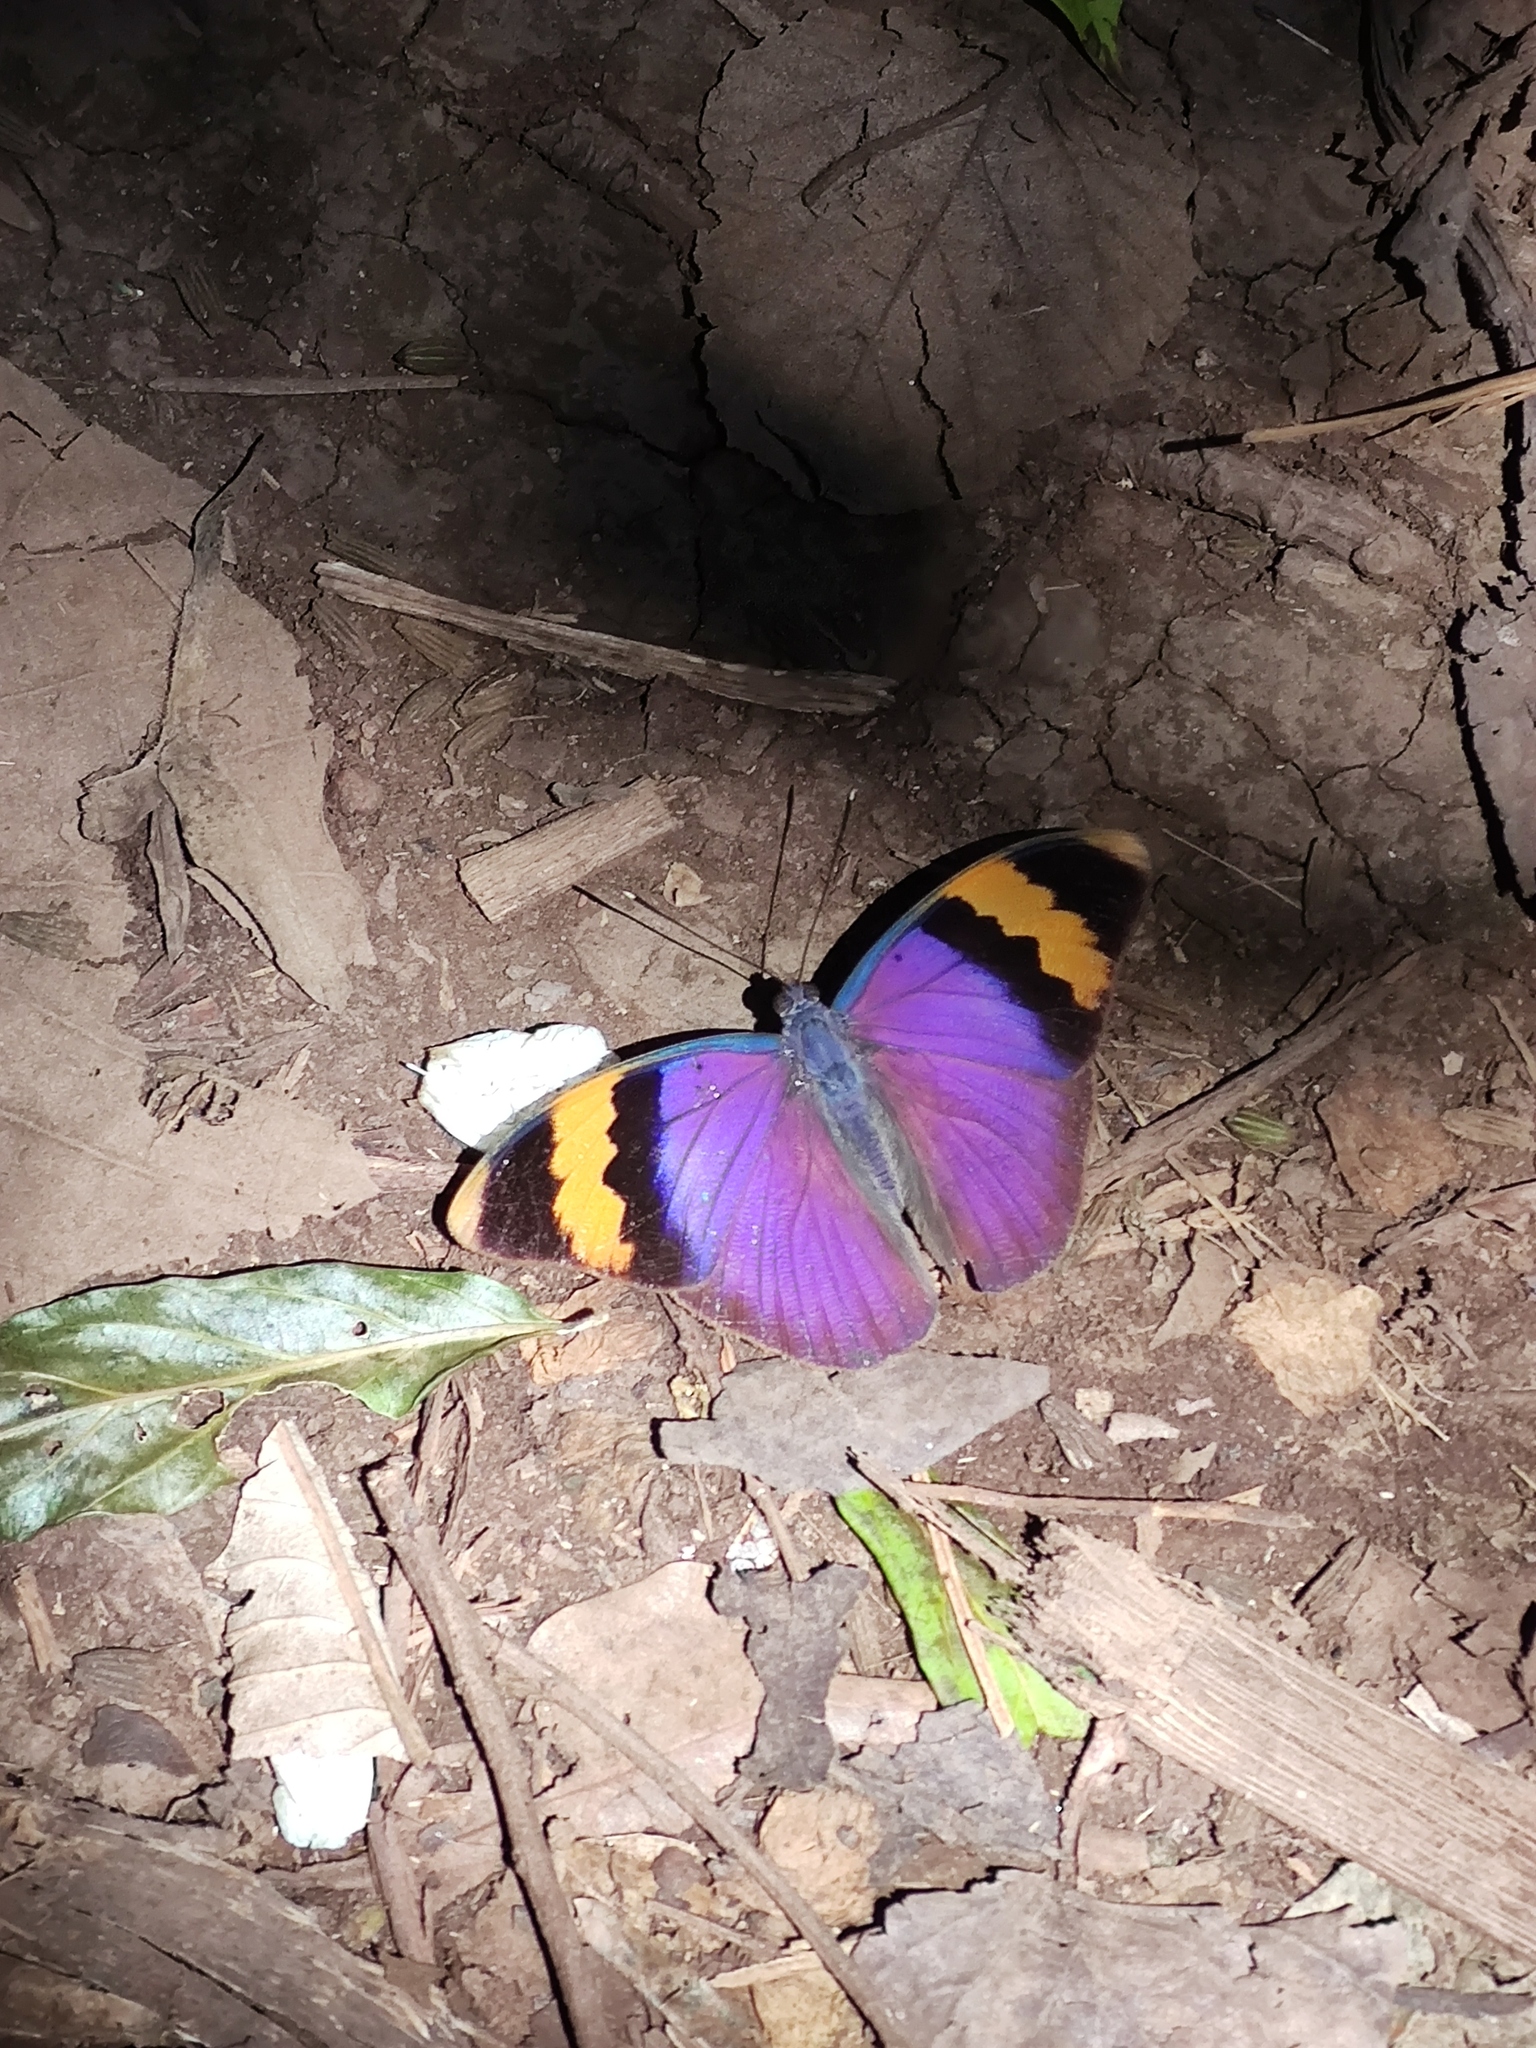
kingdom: Animalia
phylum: Arthropoda
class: Insecta
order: Lepidoptera
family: Nymphalidae
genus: Euphaedra
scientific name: Euphaedra neophron
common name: Gold-banded forester
